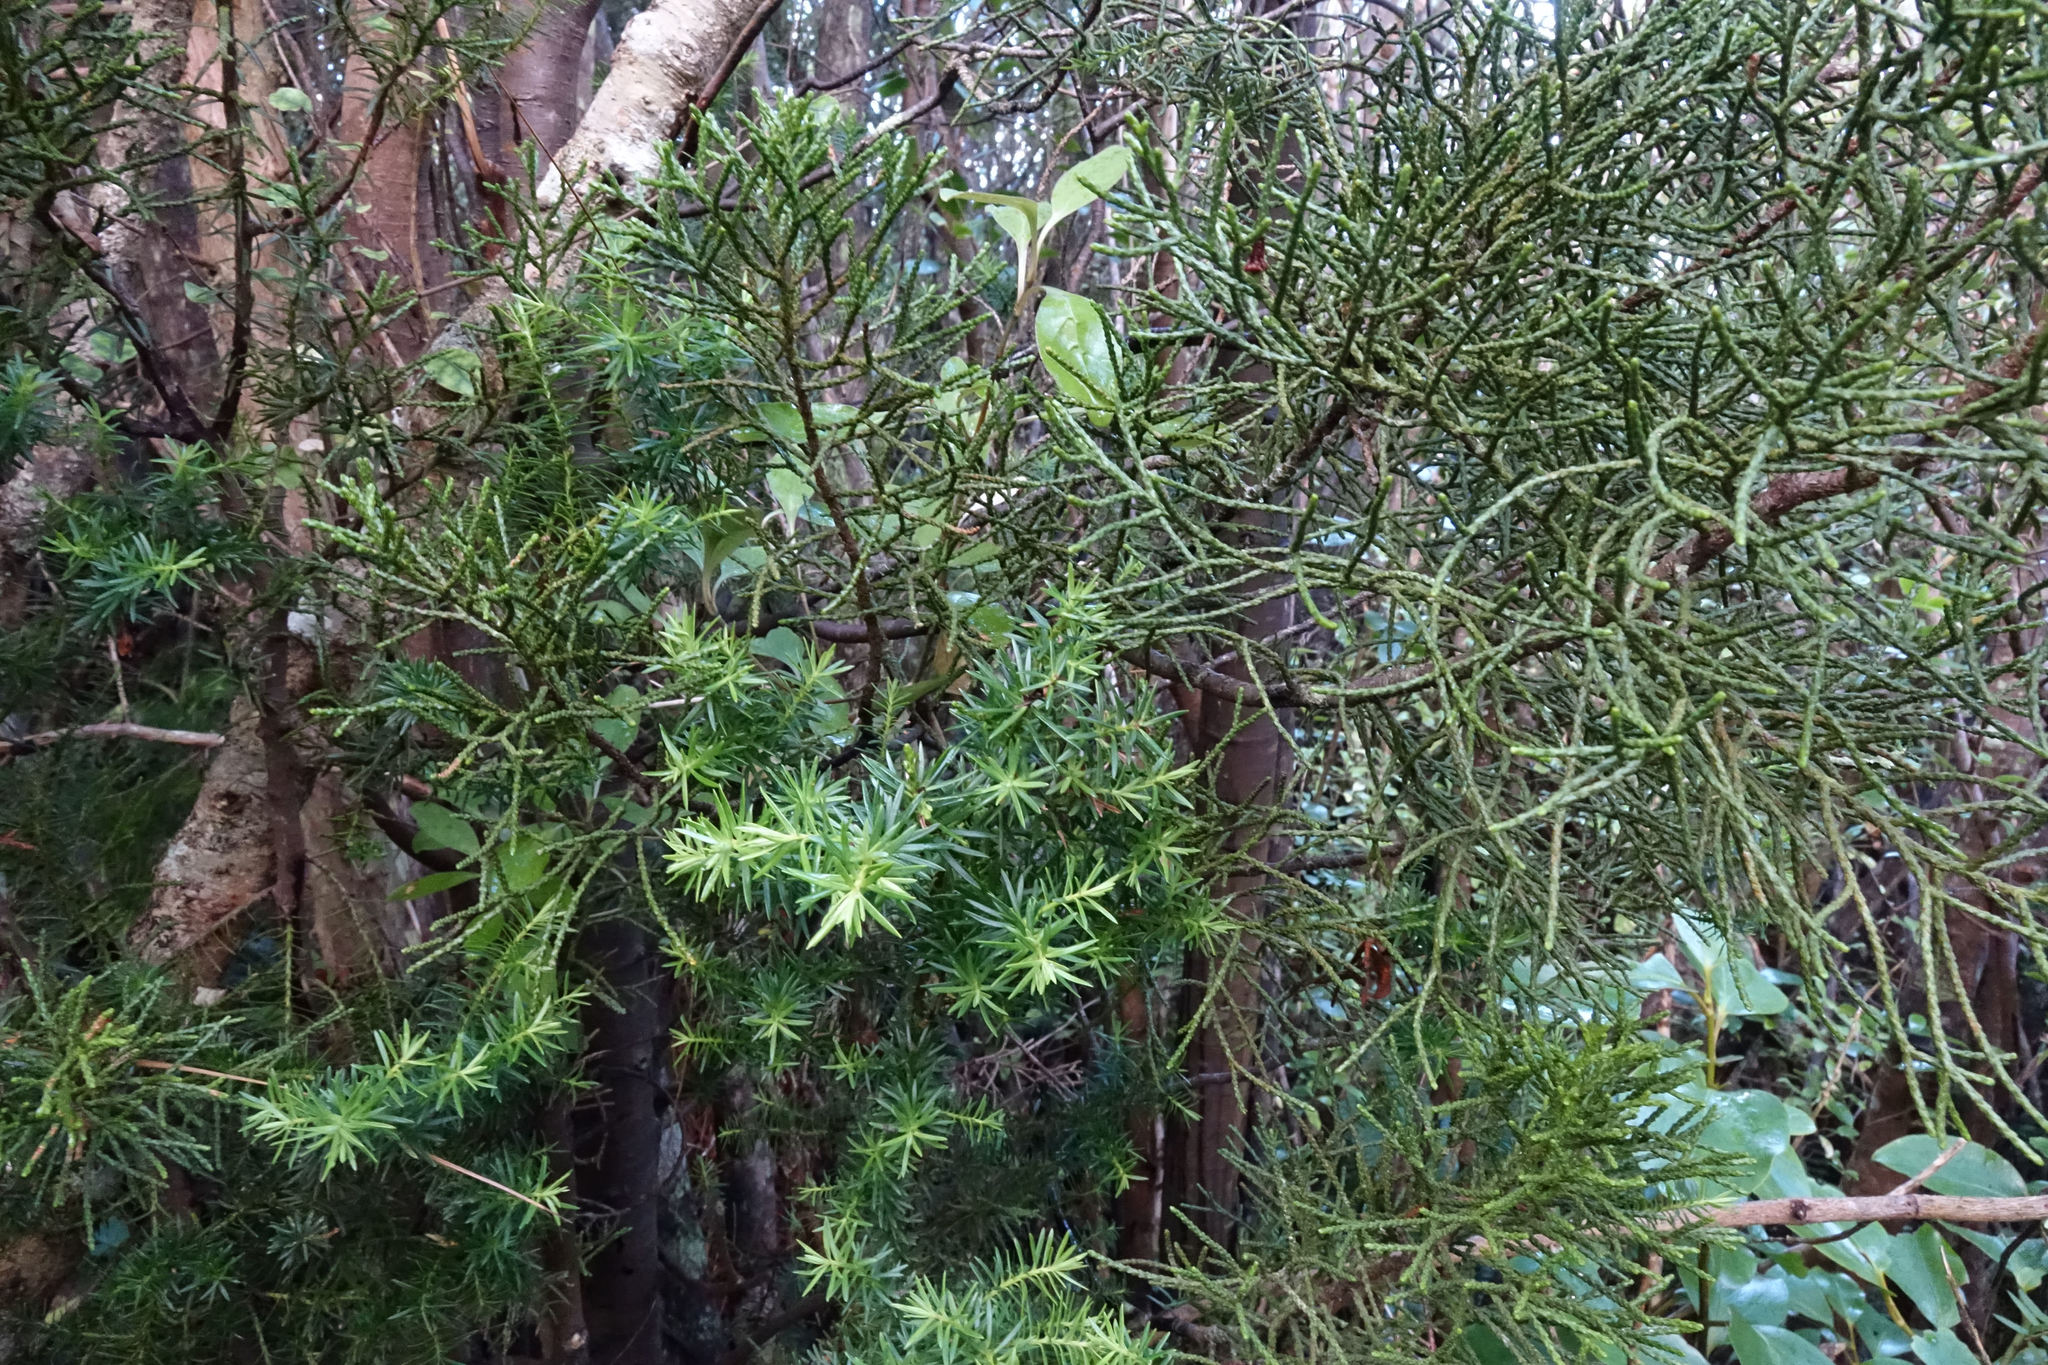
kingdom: Plantae
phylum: Tracheophyta
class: Pinopsida
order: Pinales
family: Podocarpaceae
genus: Halocarpus
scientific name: Halocarpus biformis
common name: Alpine tarwood
